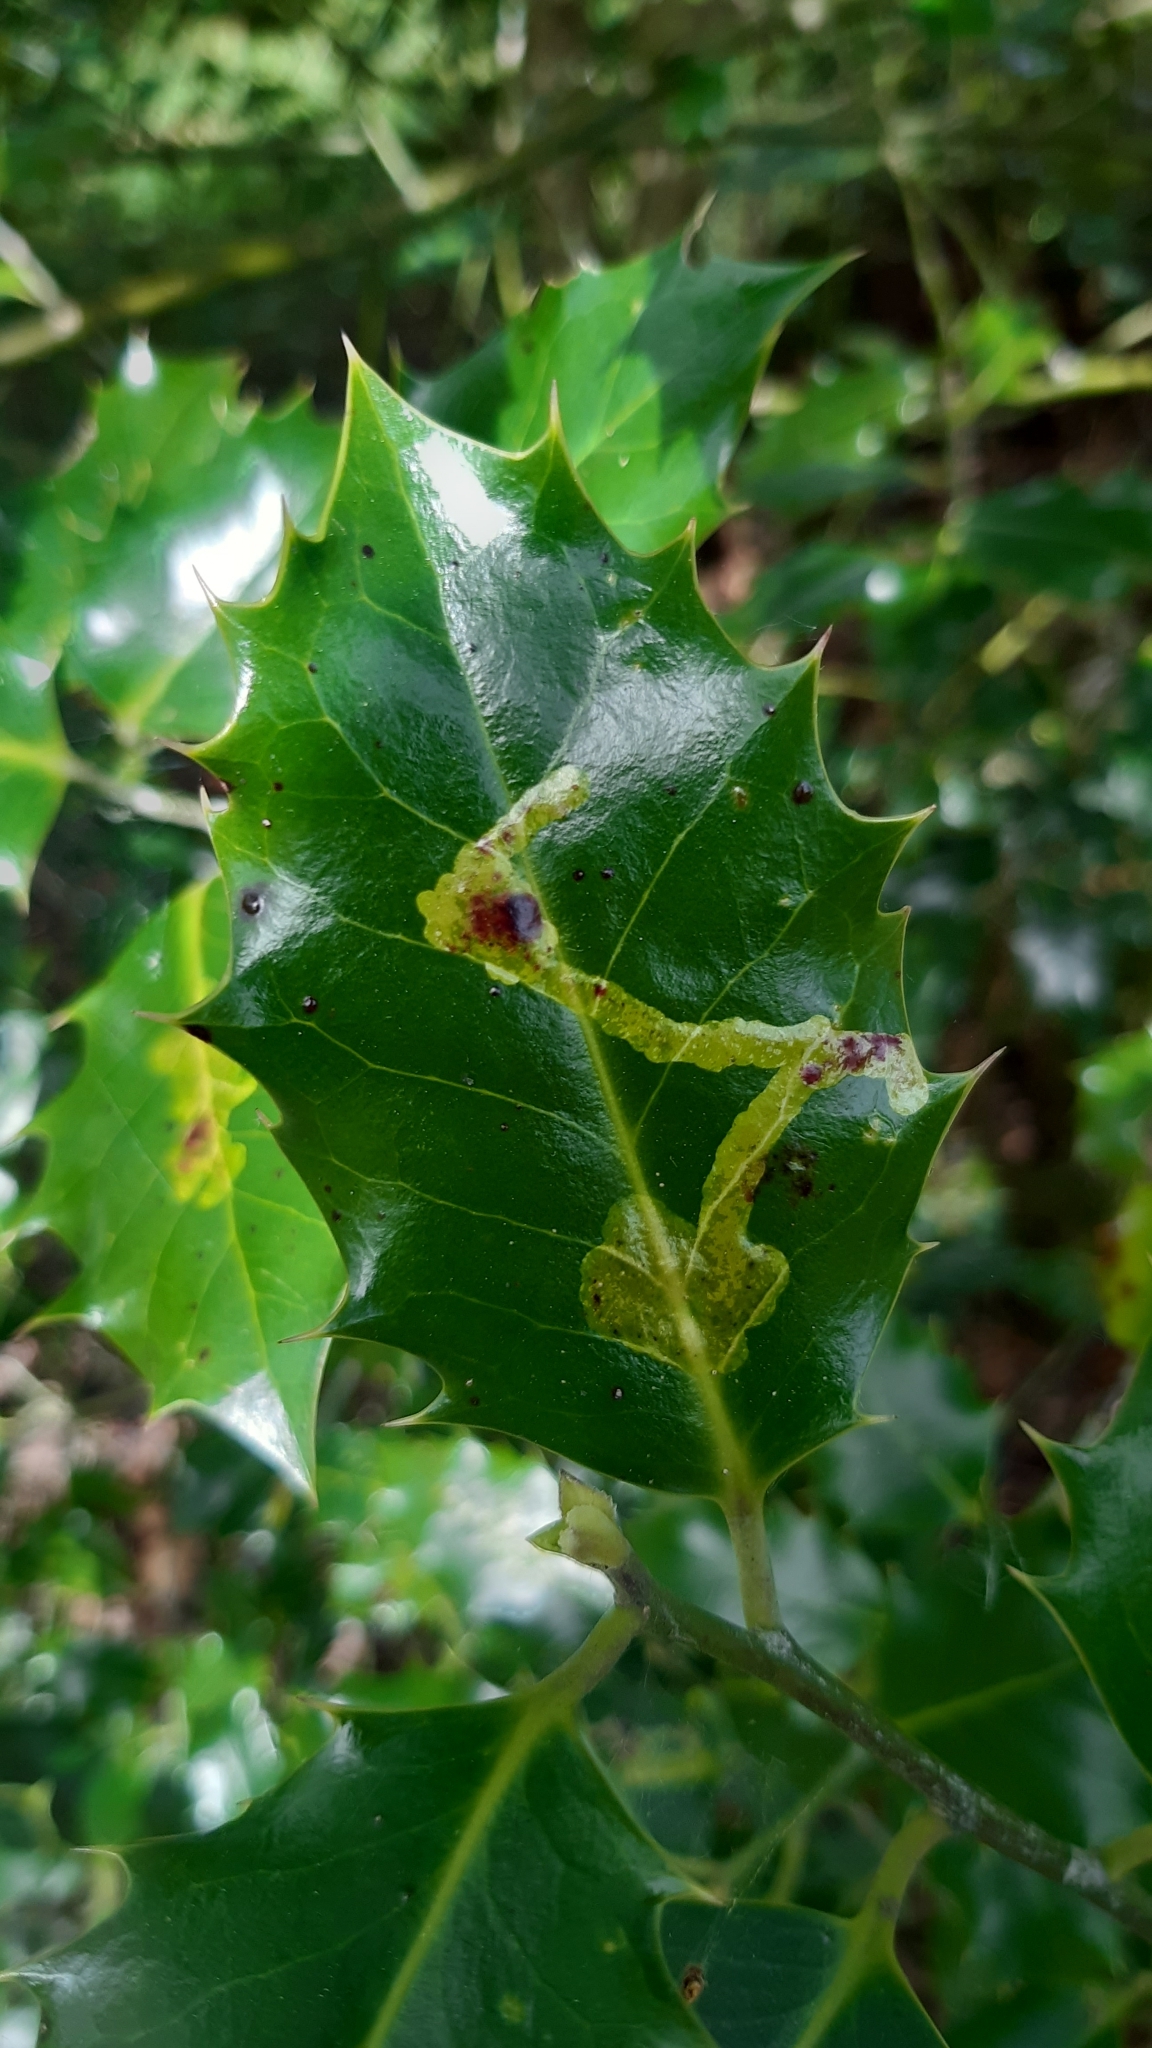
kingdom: Animalia
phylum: Arthropoda
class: Insecta
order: Diptera
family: Agromyzidae
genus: Phytomyza
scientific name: Phytomyza ilicis
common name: Holly leafminer
